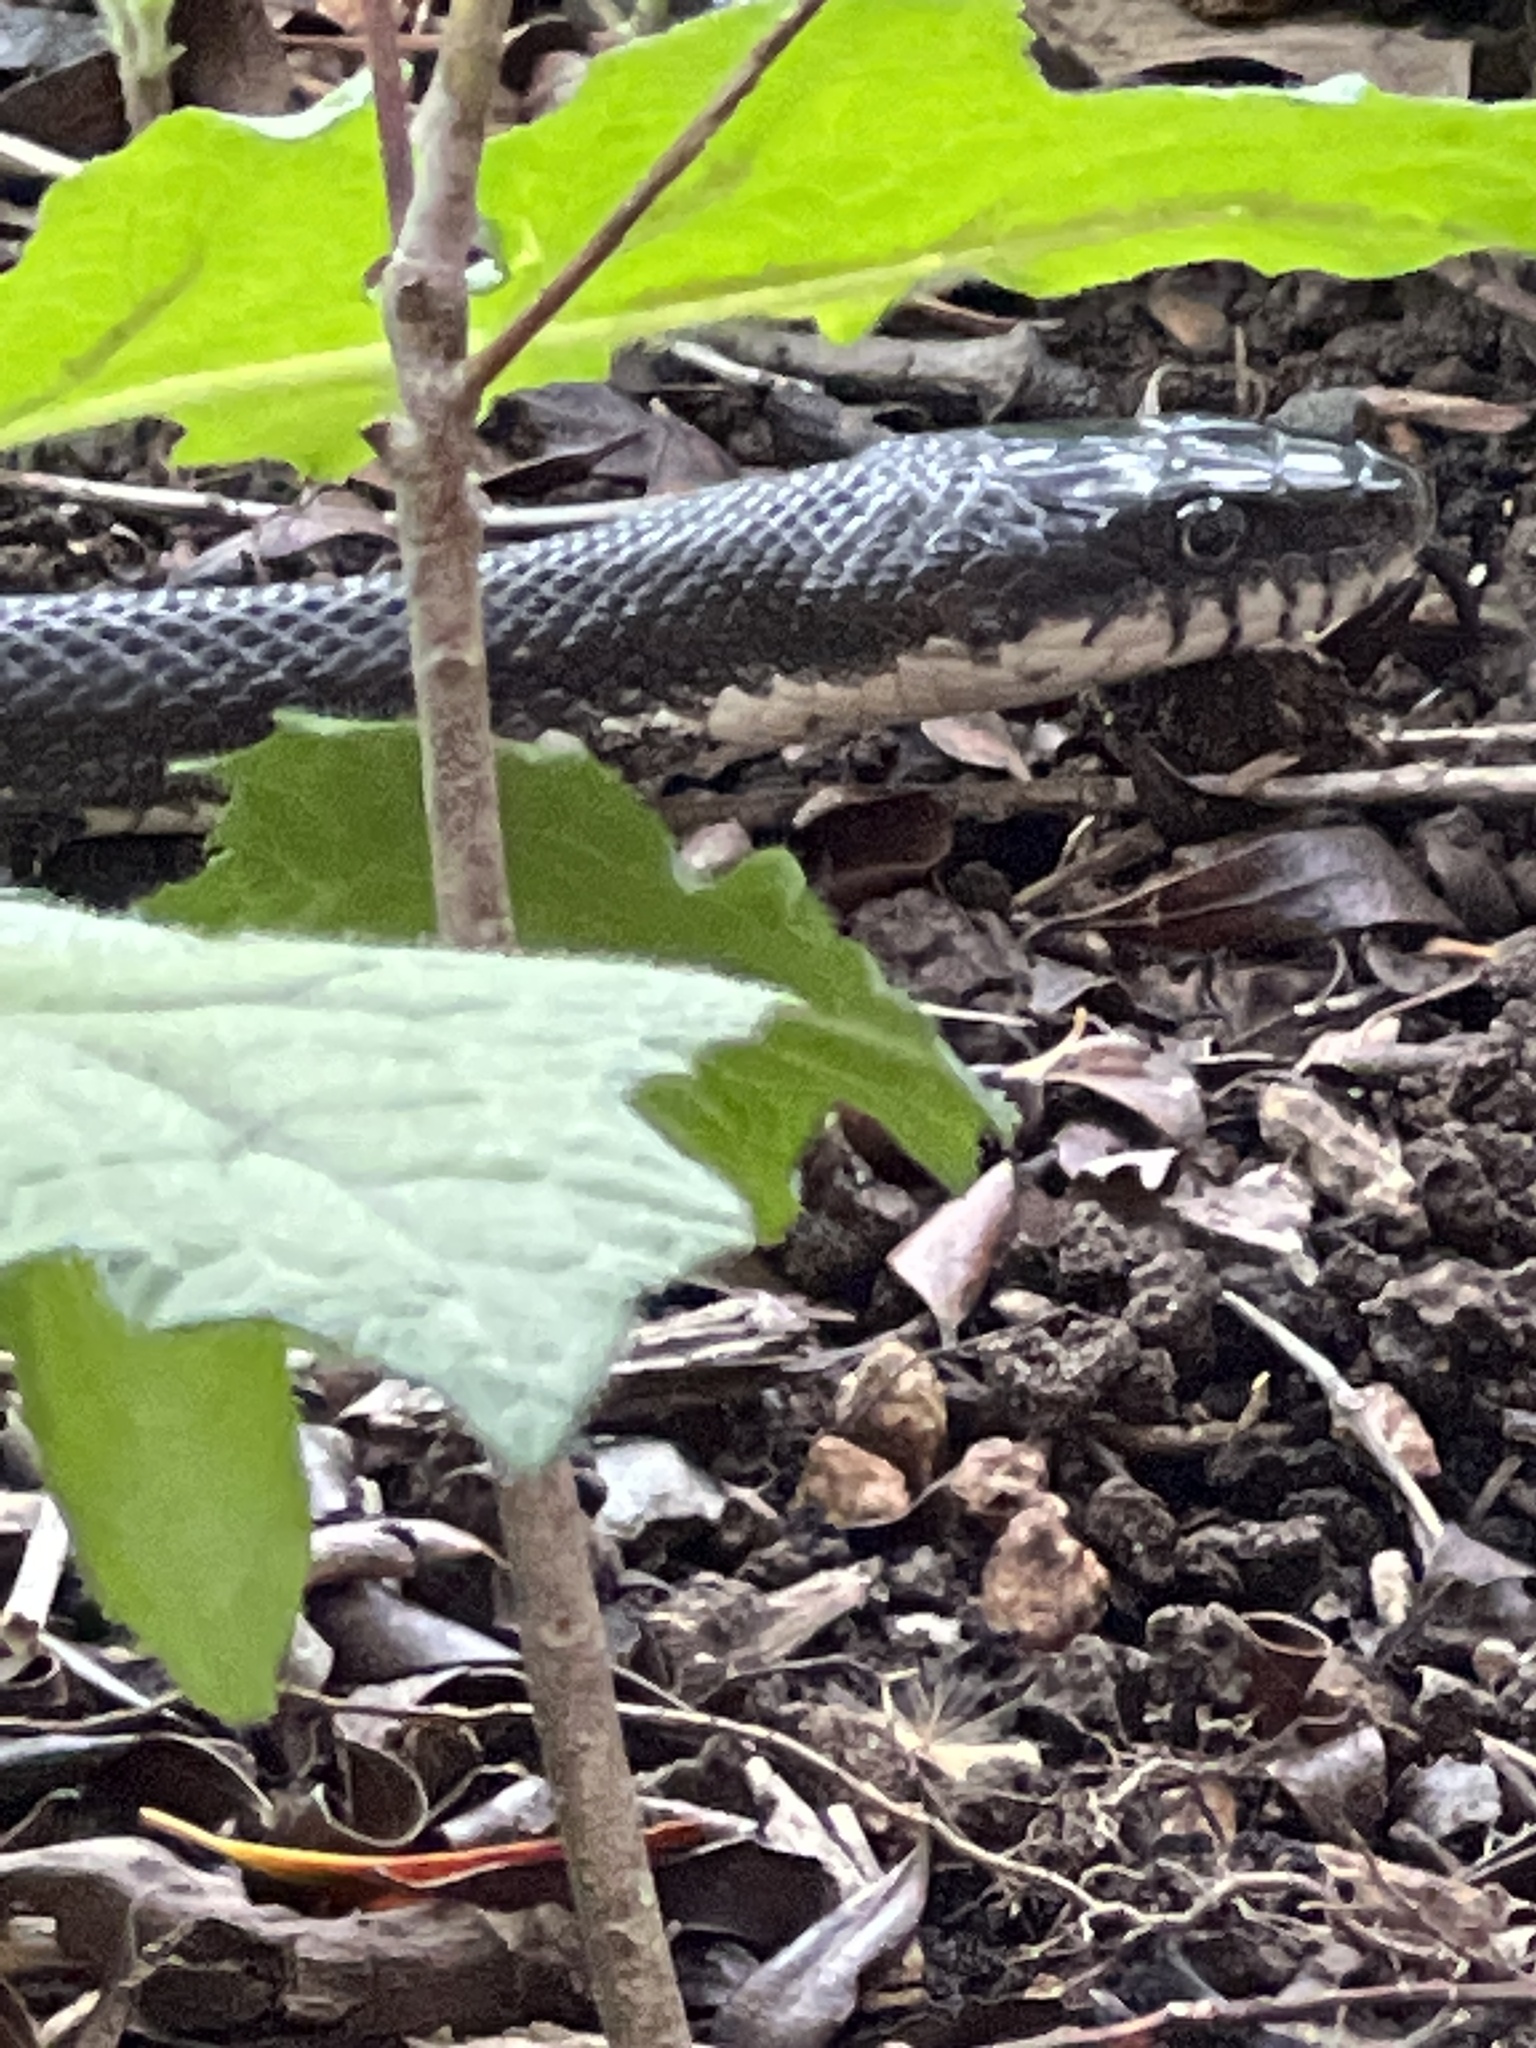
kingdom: Animalia
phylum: Chordata
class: Squamata
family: Colubridae
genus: Pantherophis
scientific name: Pantherophis alleghaniensis
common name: Eastern rat snake
